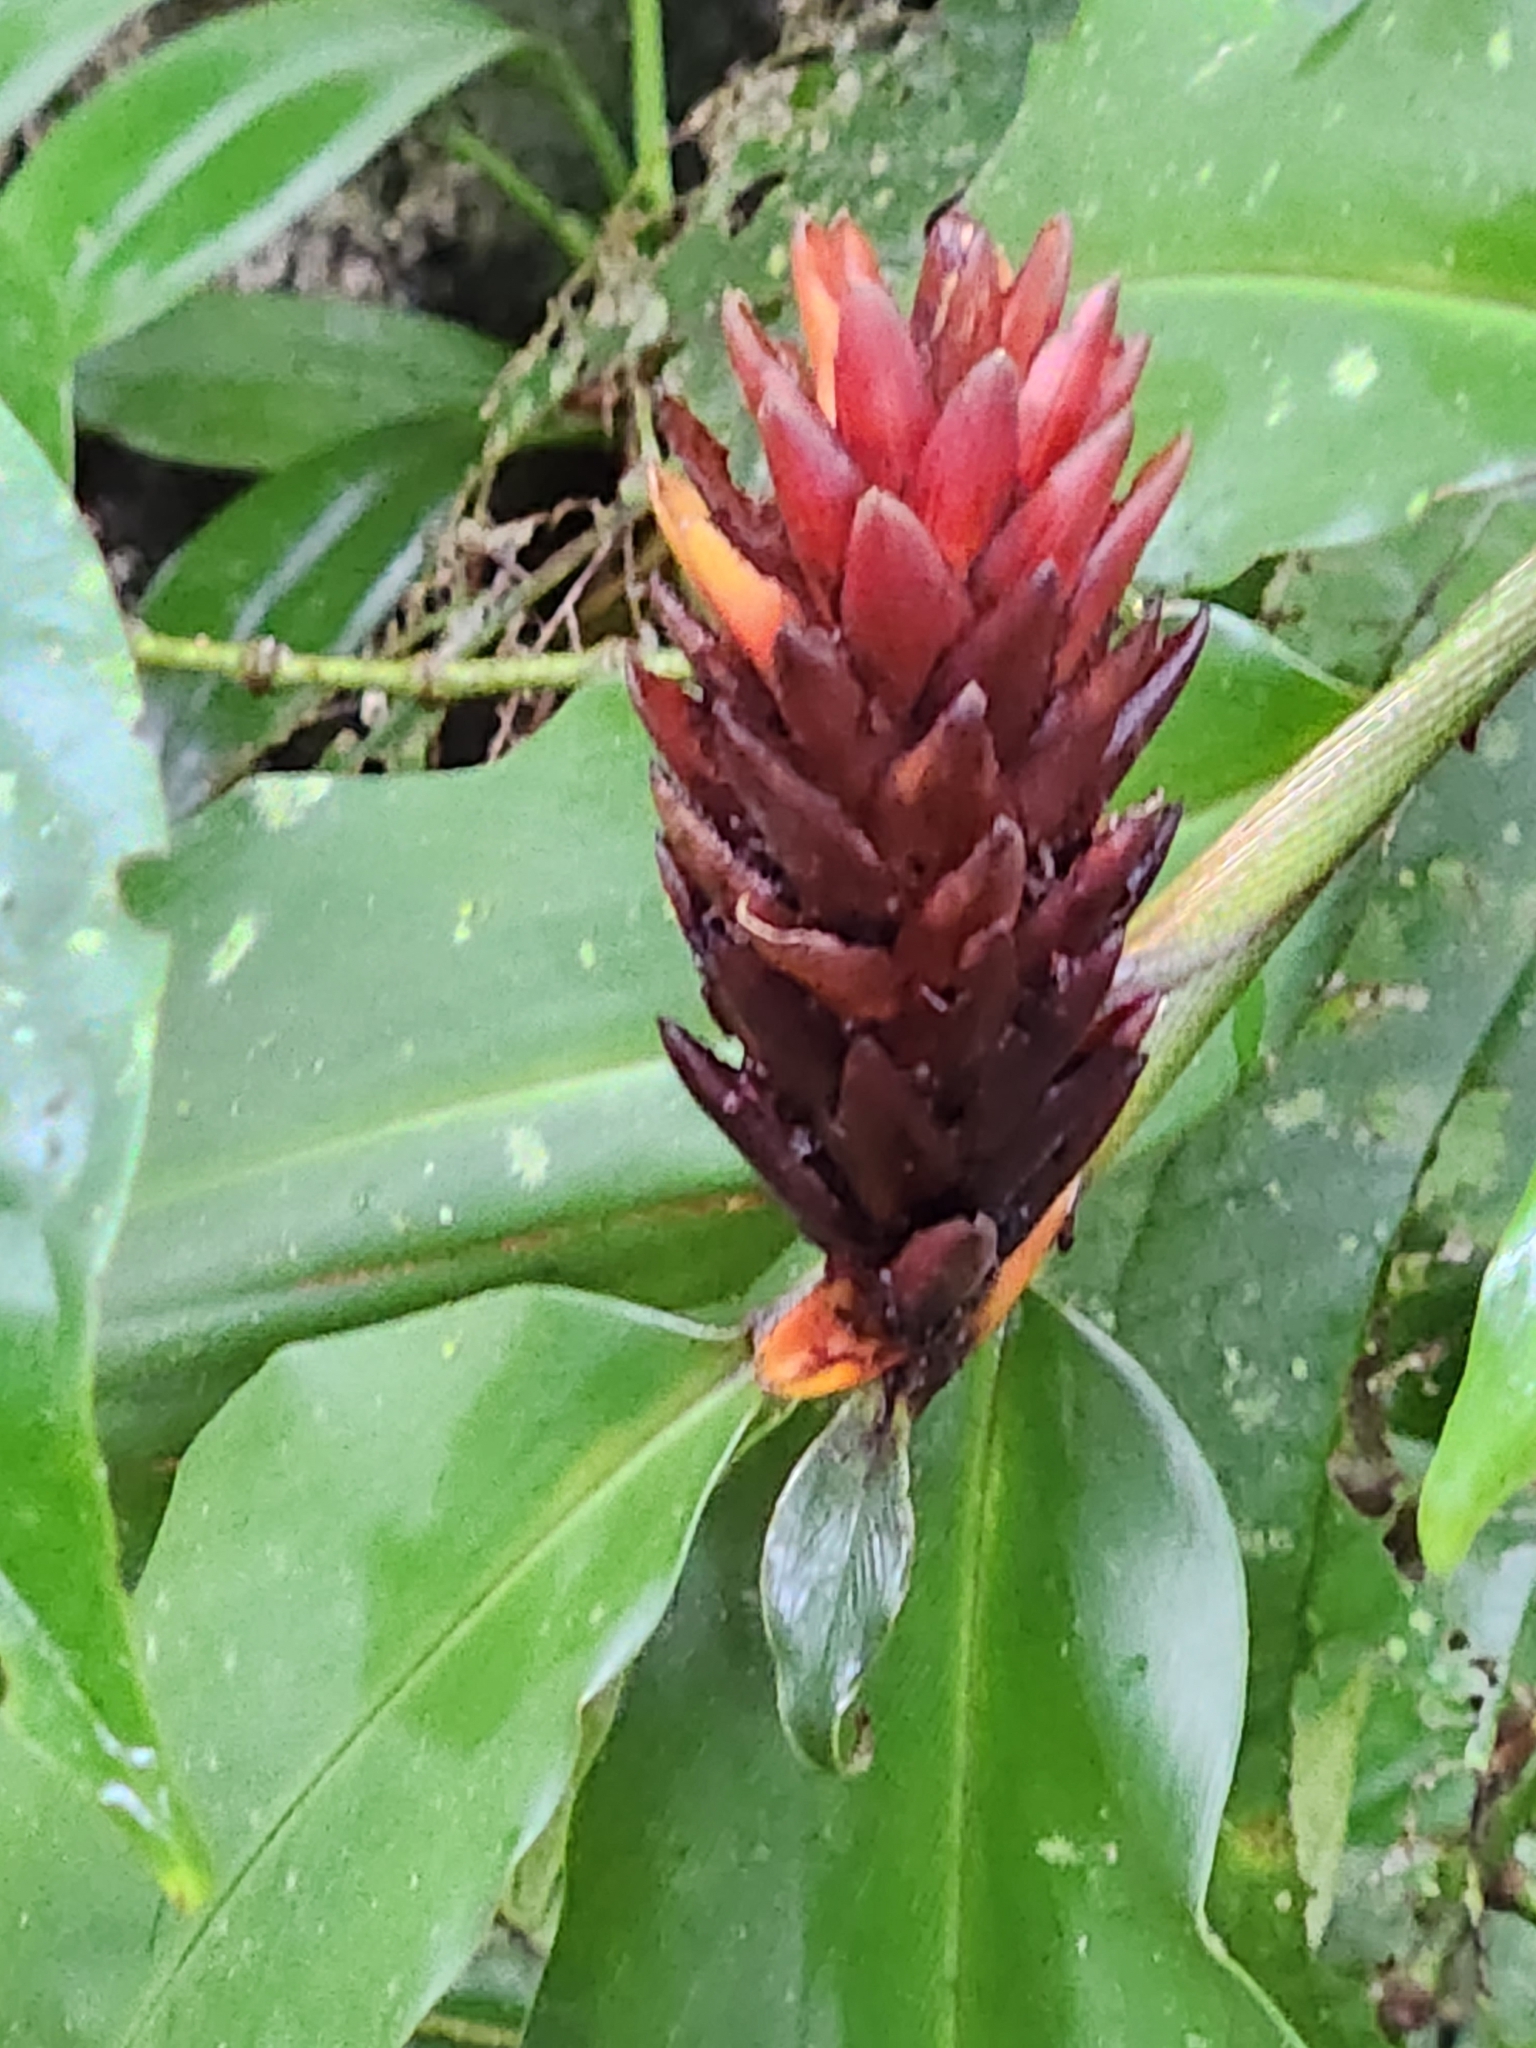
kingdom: Plantae
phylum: Tracheophyta
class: Liliopsida
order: Zingiberales
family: Zingiberaceae
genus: Renealmia
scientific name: Renealmia cernua
